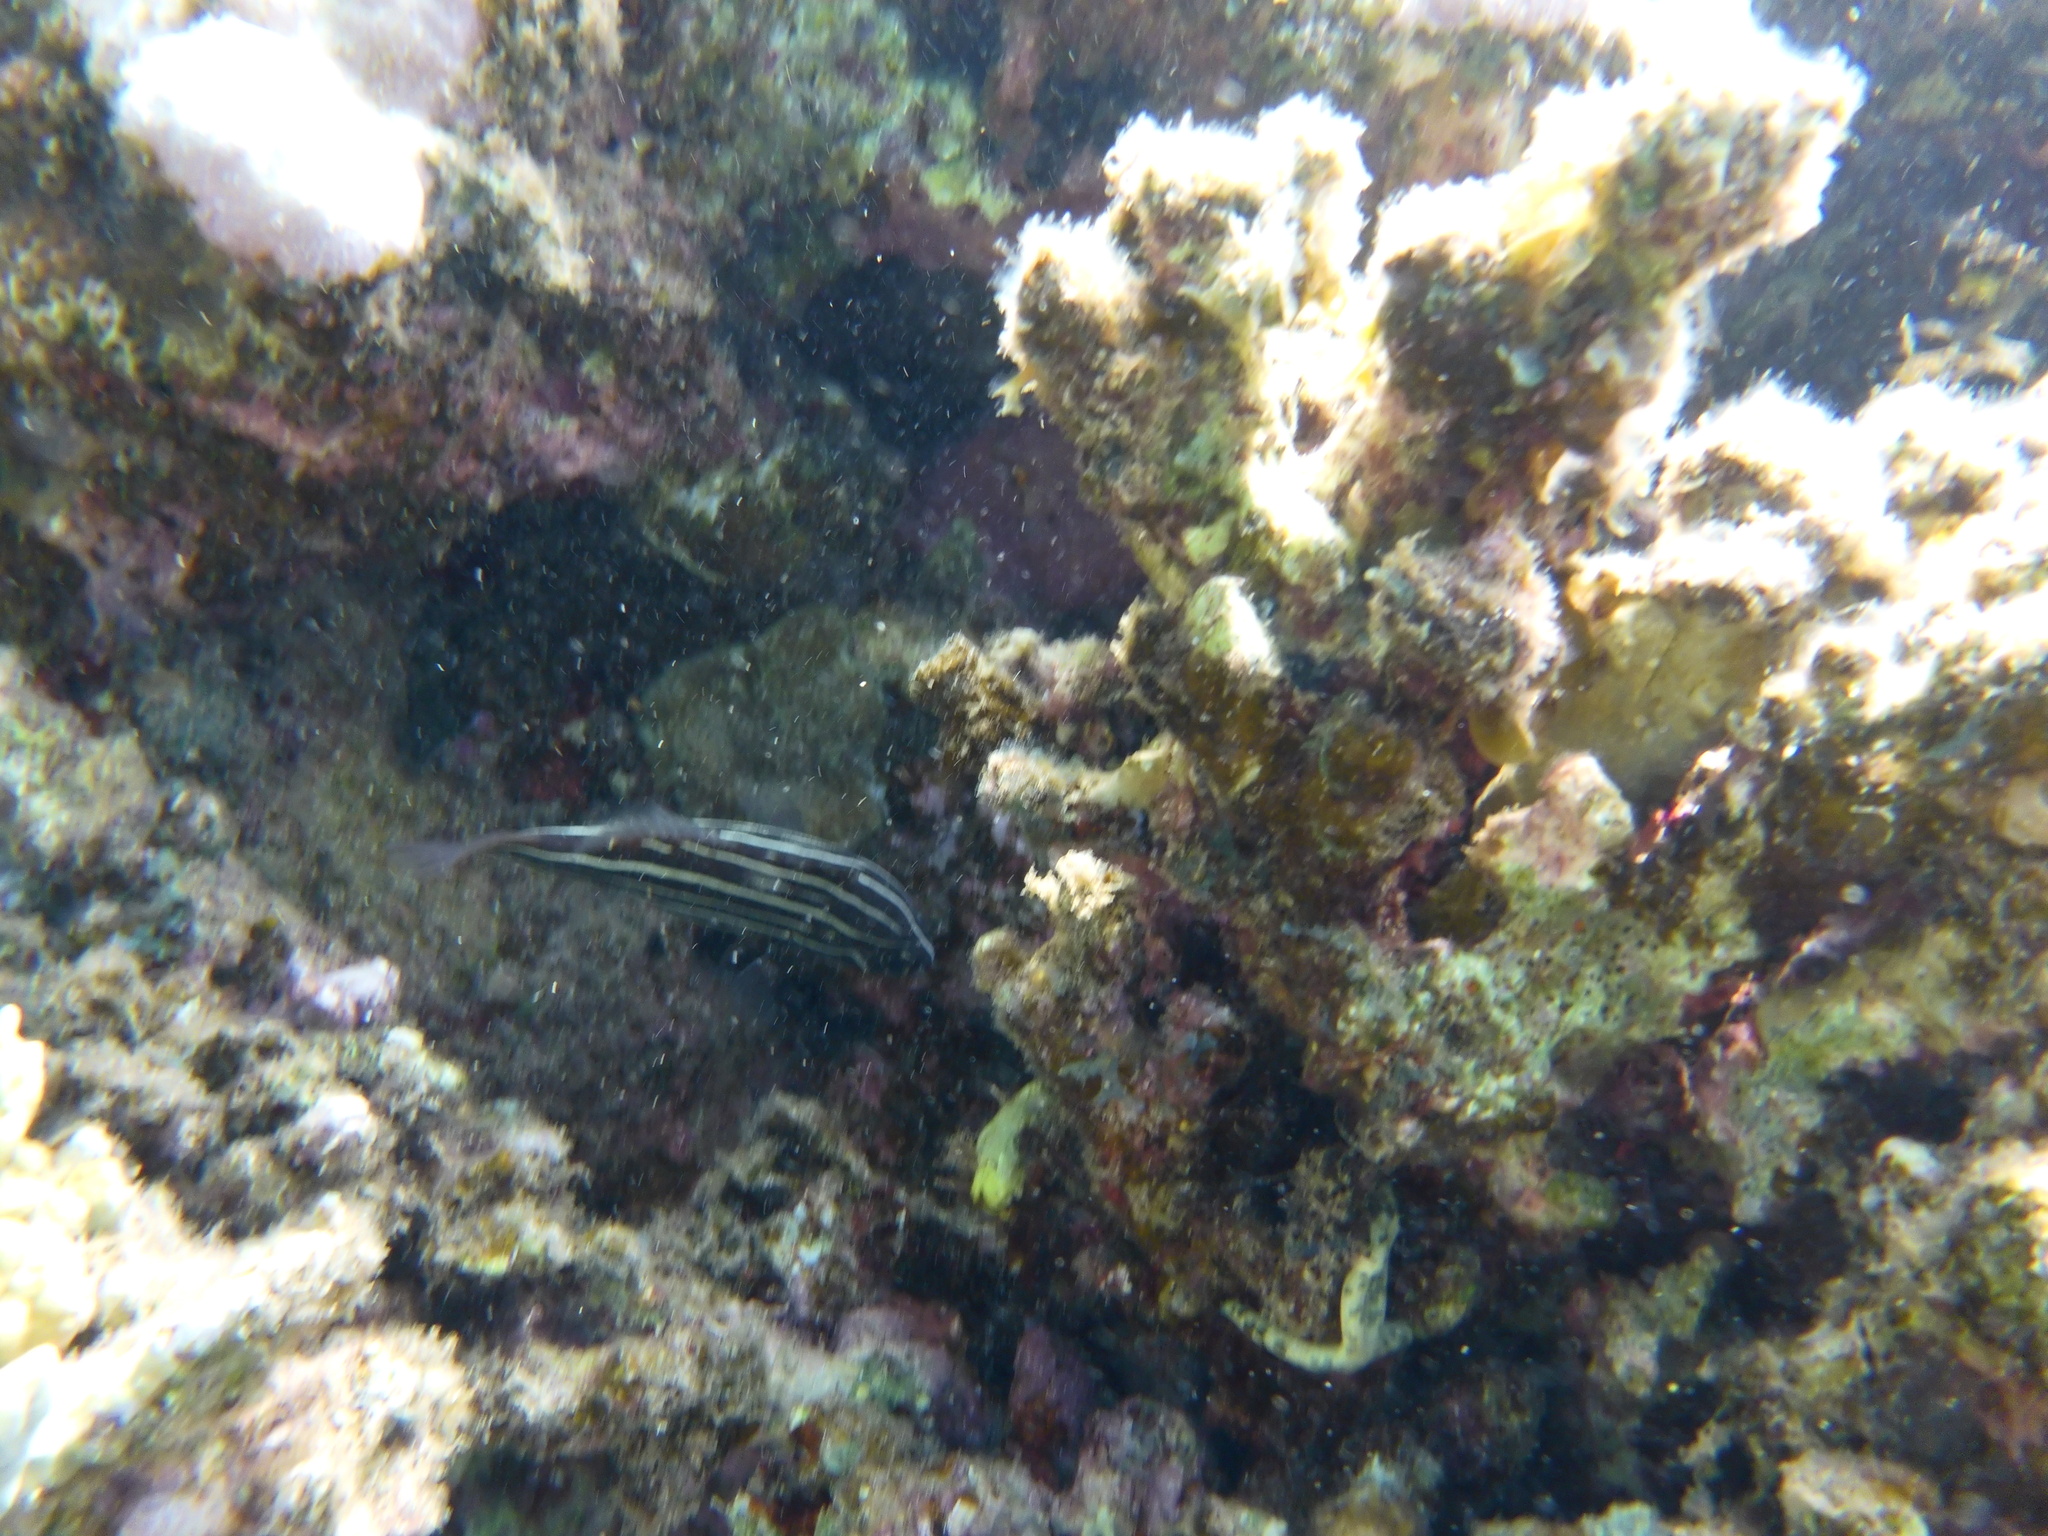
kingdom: Animalia
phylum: Chordata
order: Perciformes
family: Serranidae
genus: Grammistes
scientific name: Grammistes sexlineatus
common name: Sixline soapfish
